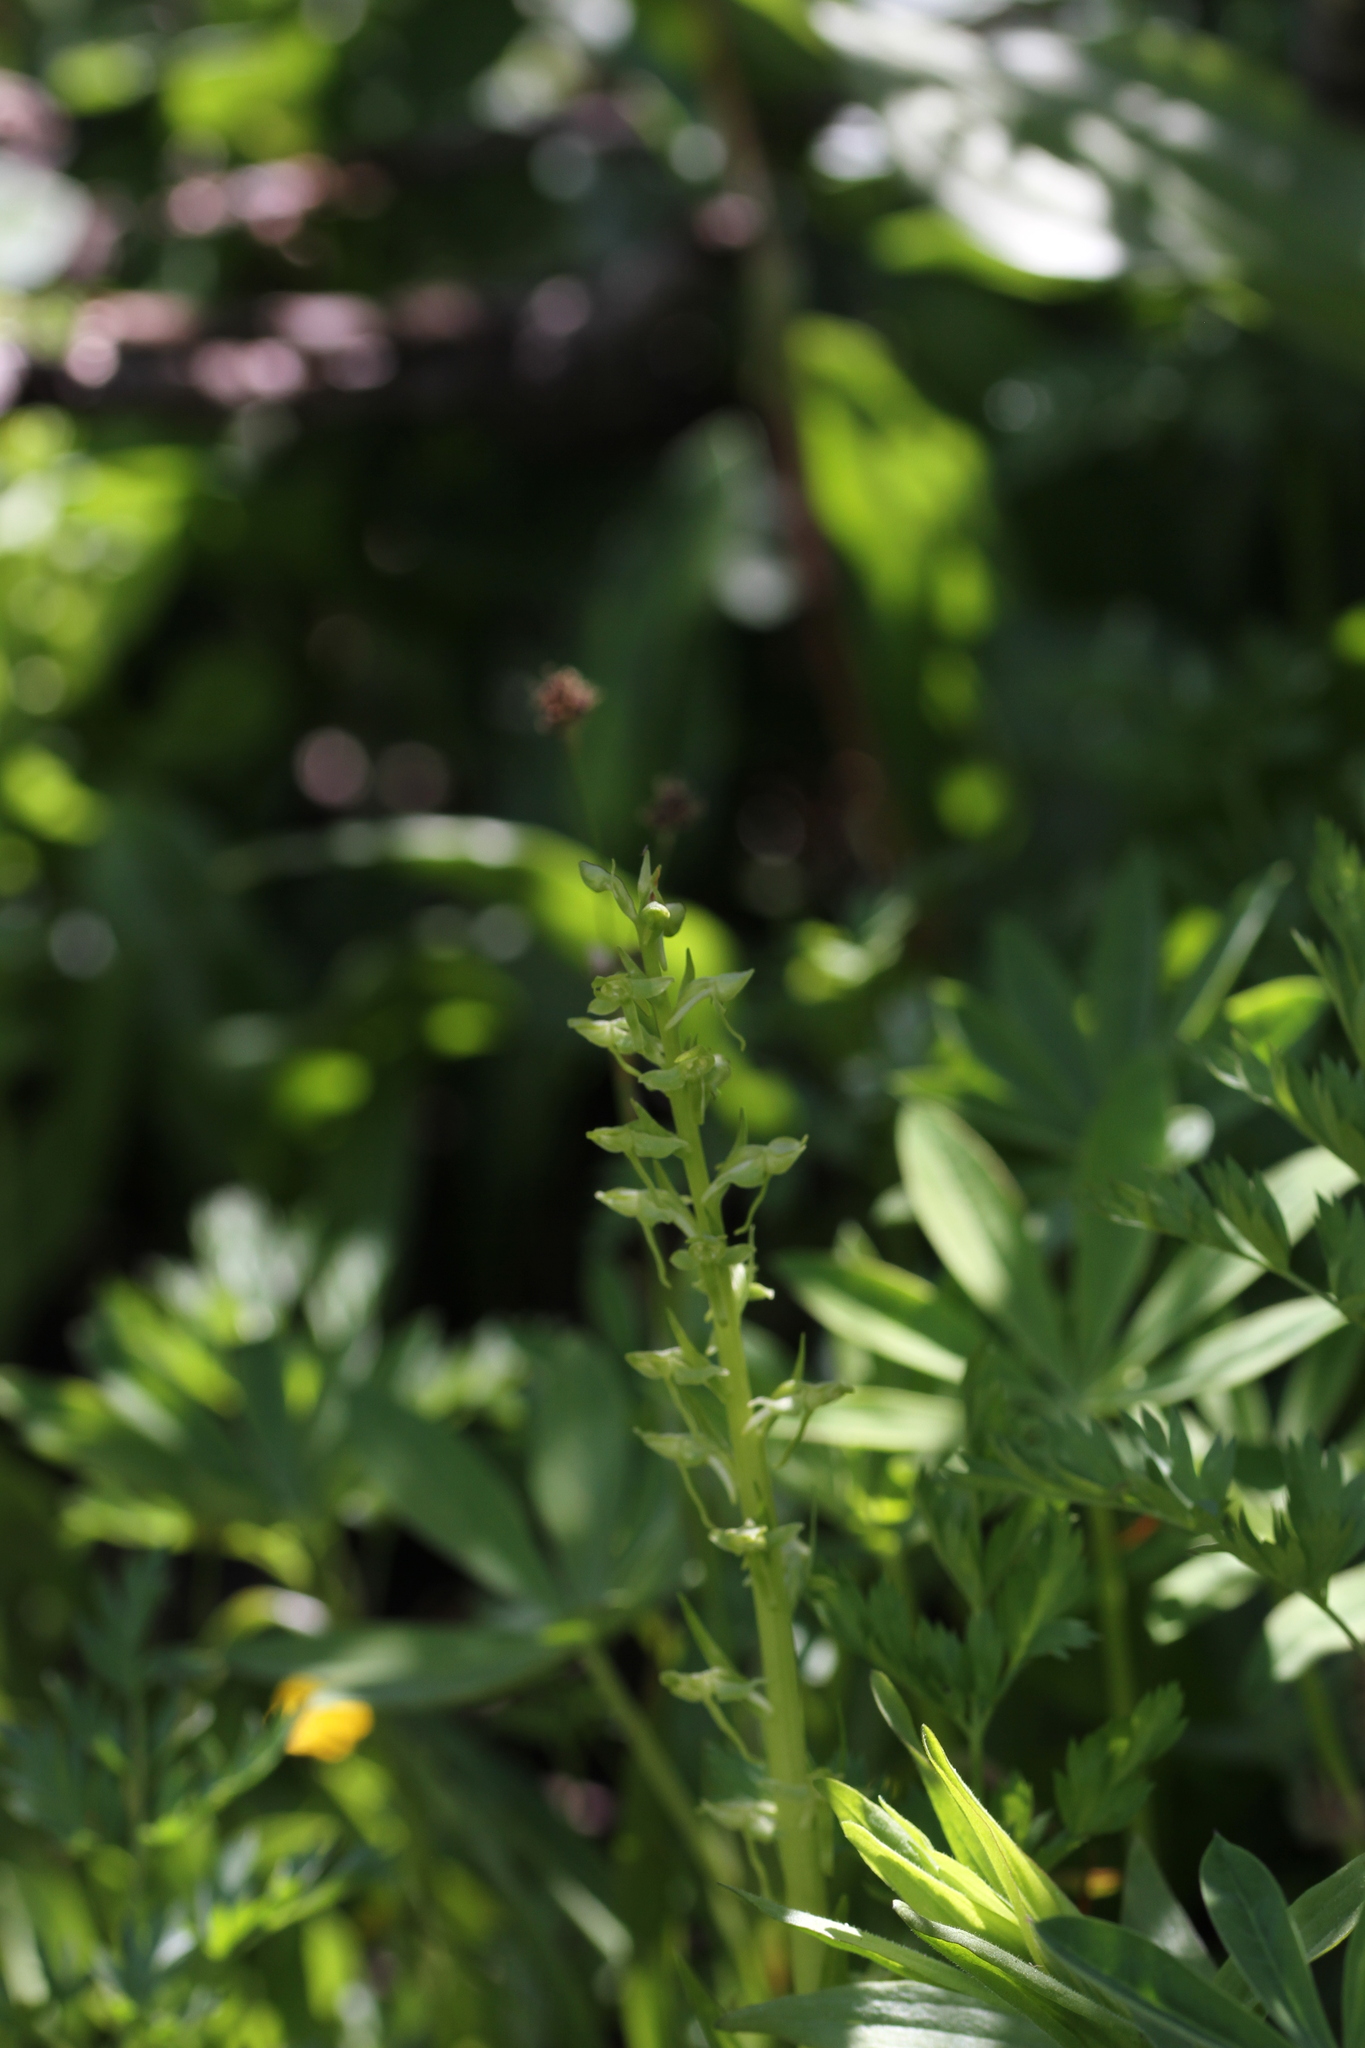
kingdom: Plantae
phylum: Tracheophyta
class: Liliopsida
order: Asparagales
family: Orchidaceae
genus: Platanthera
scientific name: Platanthera sparsiflora
